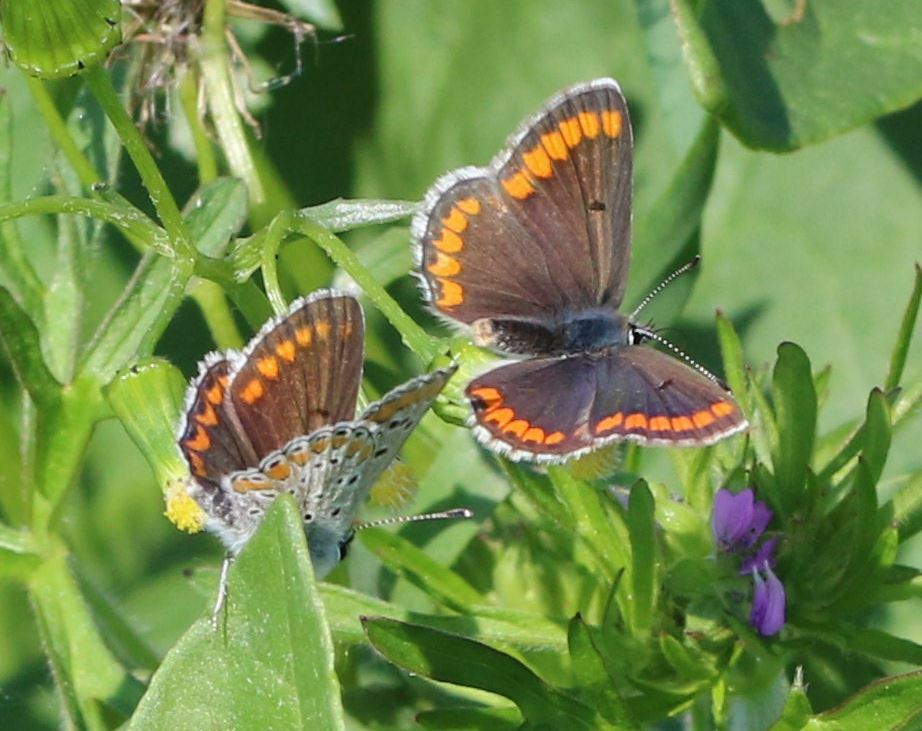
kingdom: Animalia
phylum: Arthropoda
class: Insecta
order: Lepidoptera
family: Lycaenidae
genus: Aricia
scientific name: Aricia agestis
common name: Brown argus
